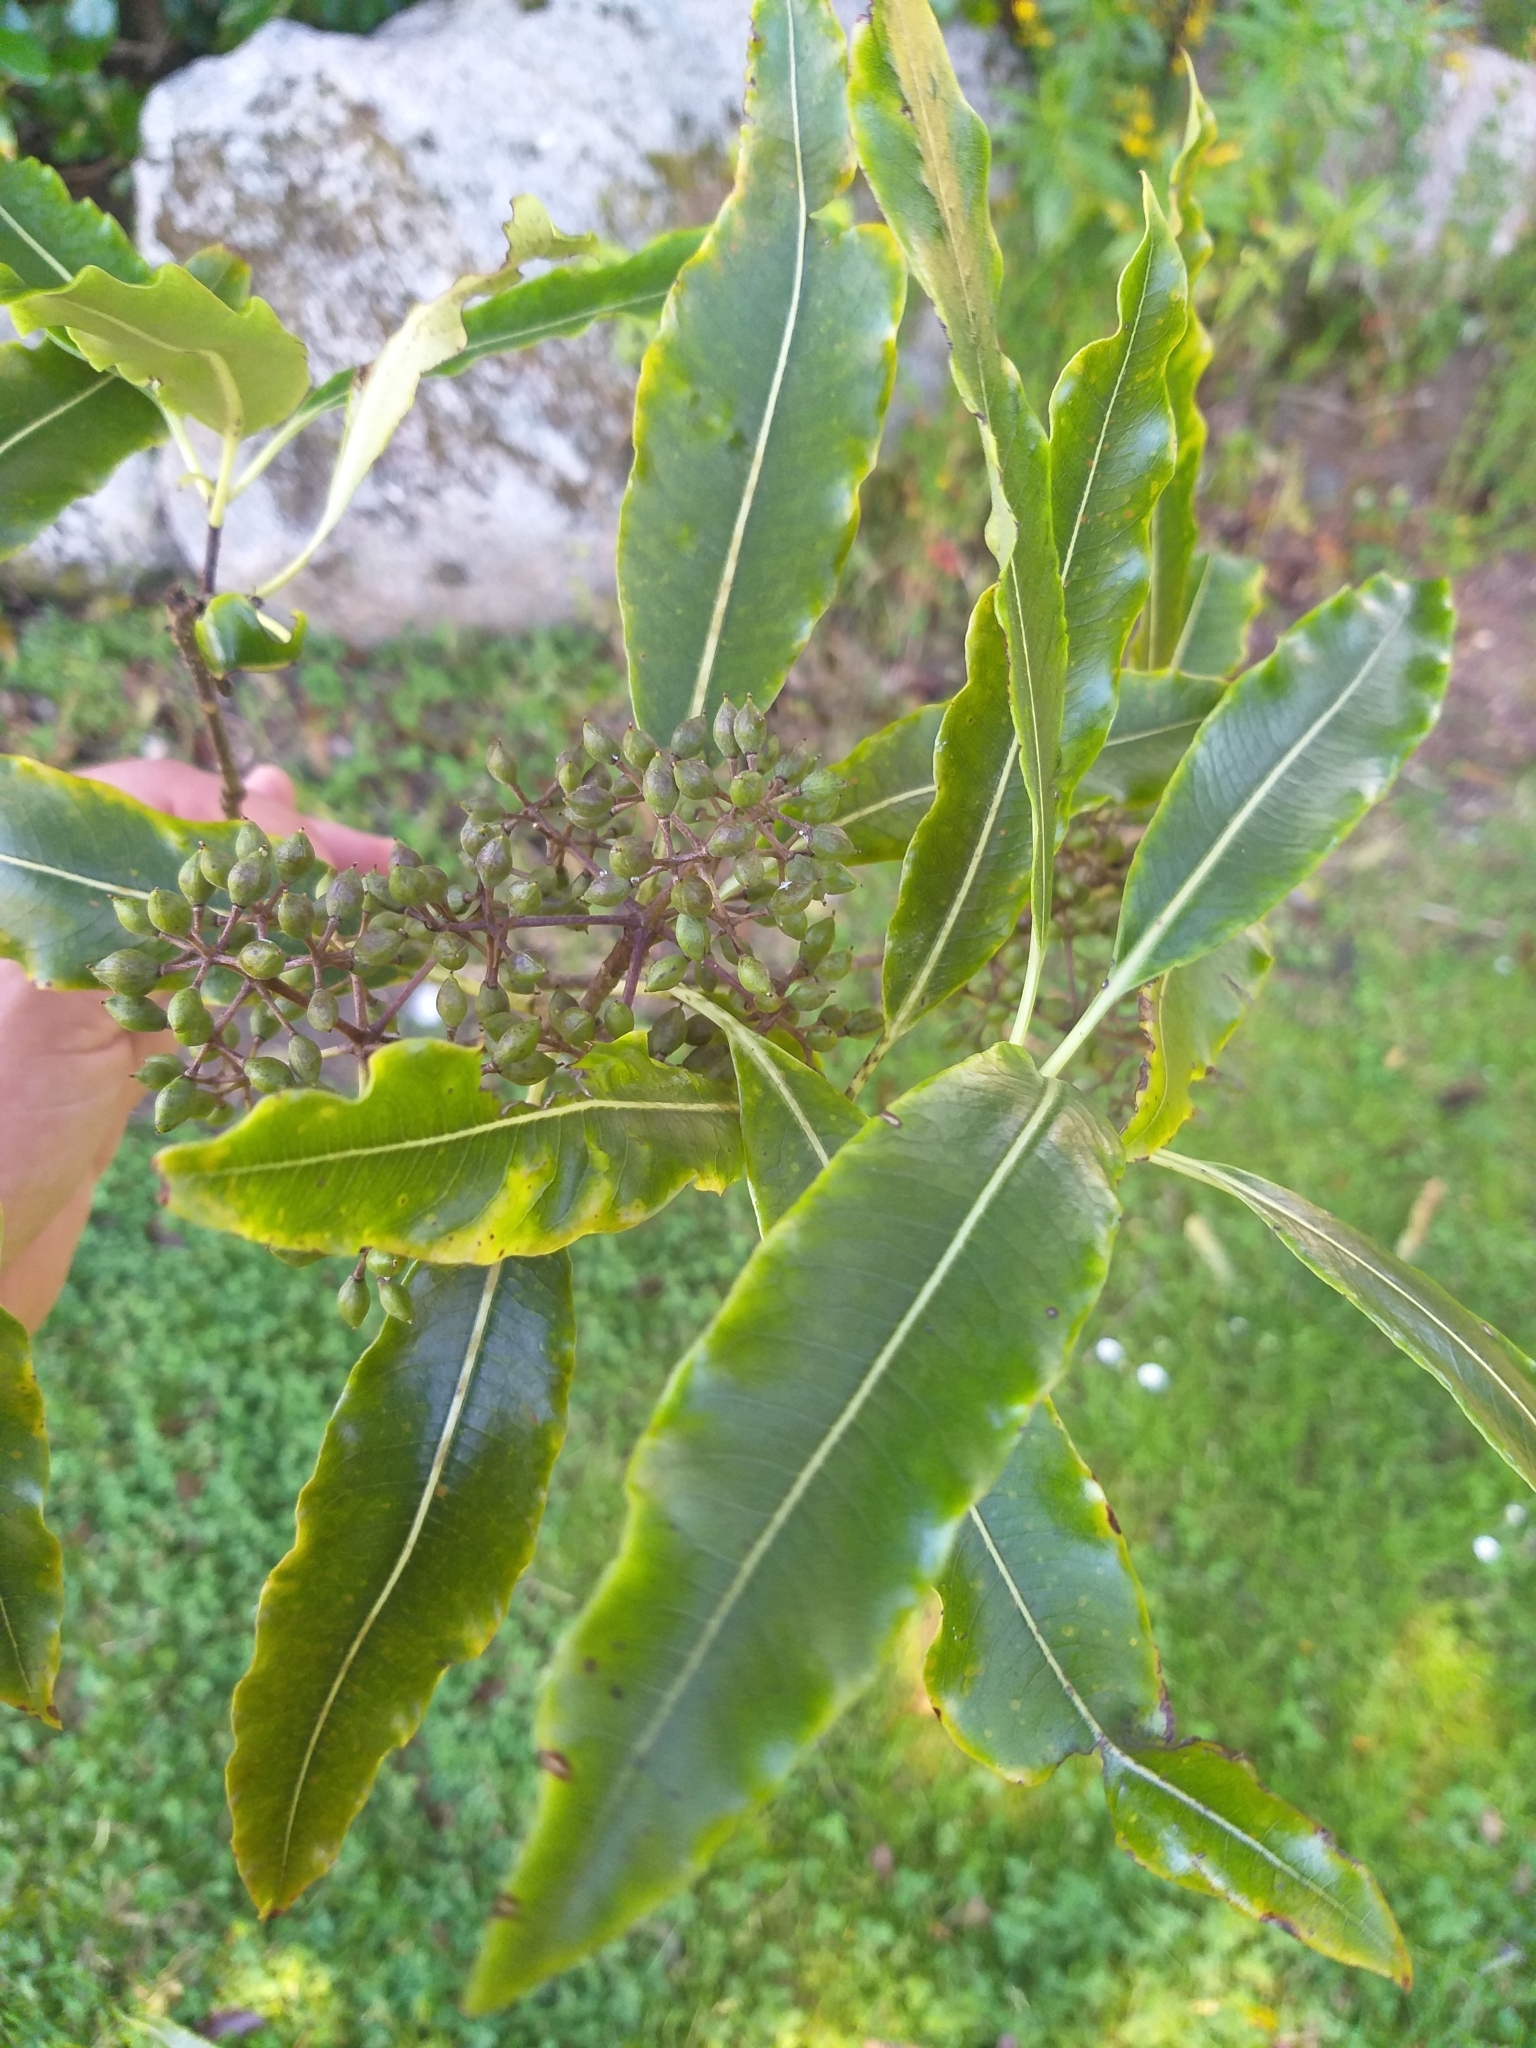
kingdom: Plantae
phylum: Tracheophyta
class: Magnoliopsida
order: Apiales
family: Pittosporaceae
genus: Pittosporum
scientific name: Pittosporum eugenioides
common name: Lemonwood
